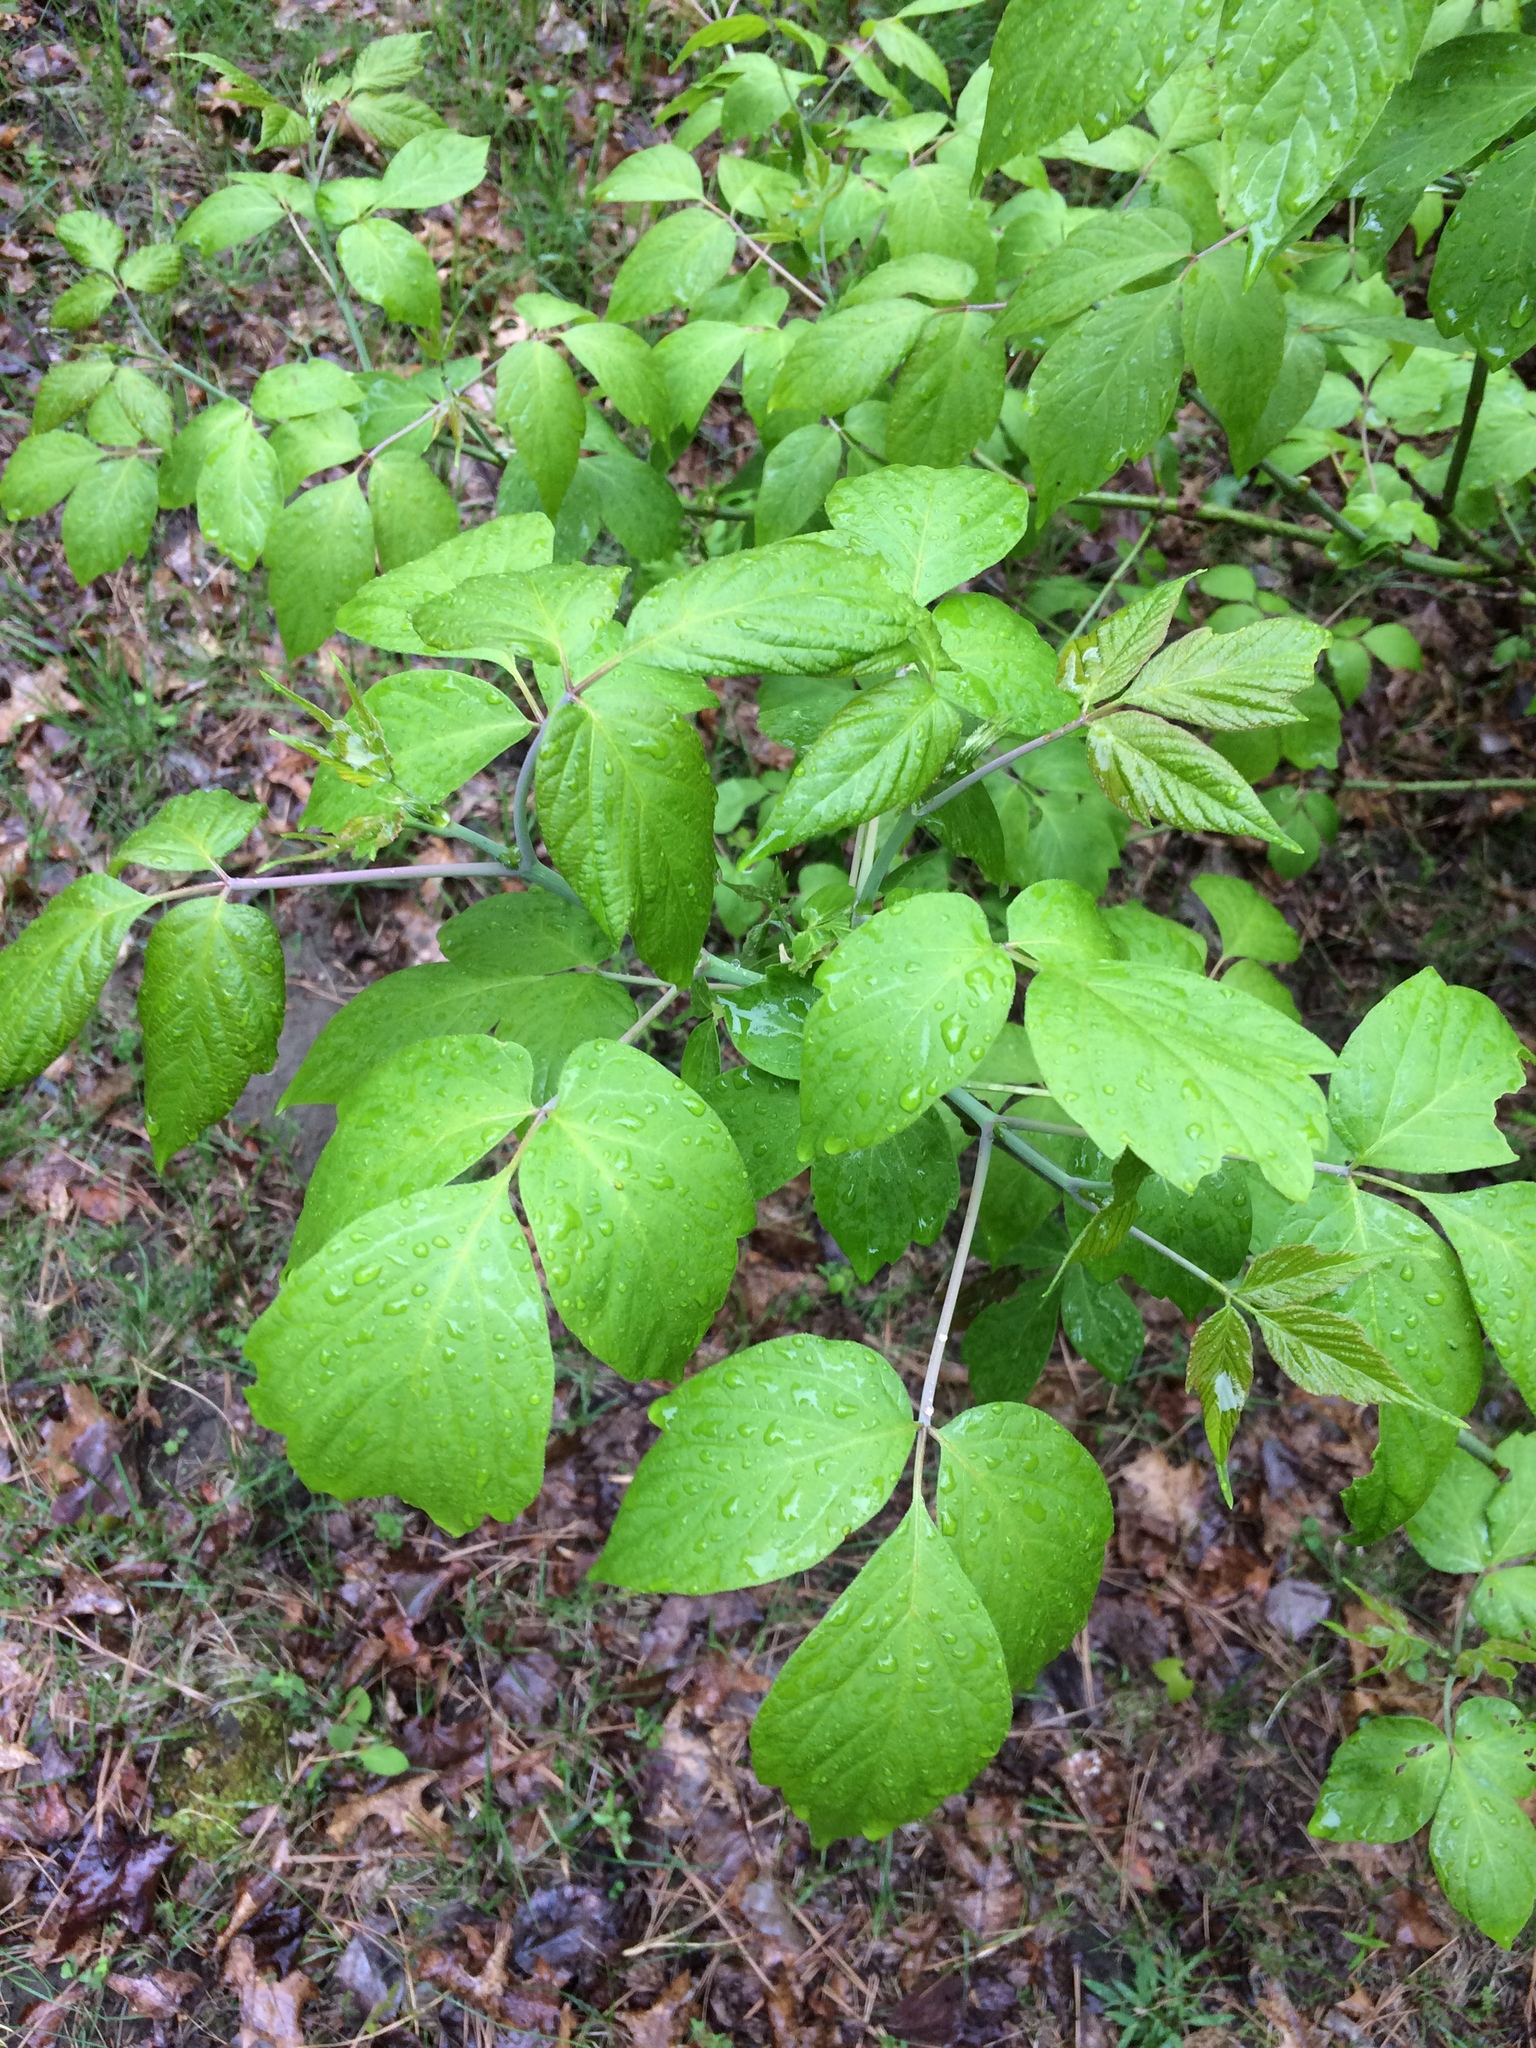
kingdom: Plantae
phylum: Tracheophyta
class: Magnoliopsida
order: Sapindales
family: Sapindaceae
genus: Acer
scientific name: Acer negundo
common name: Ashleaf maple
